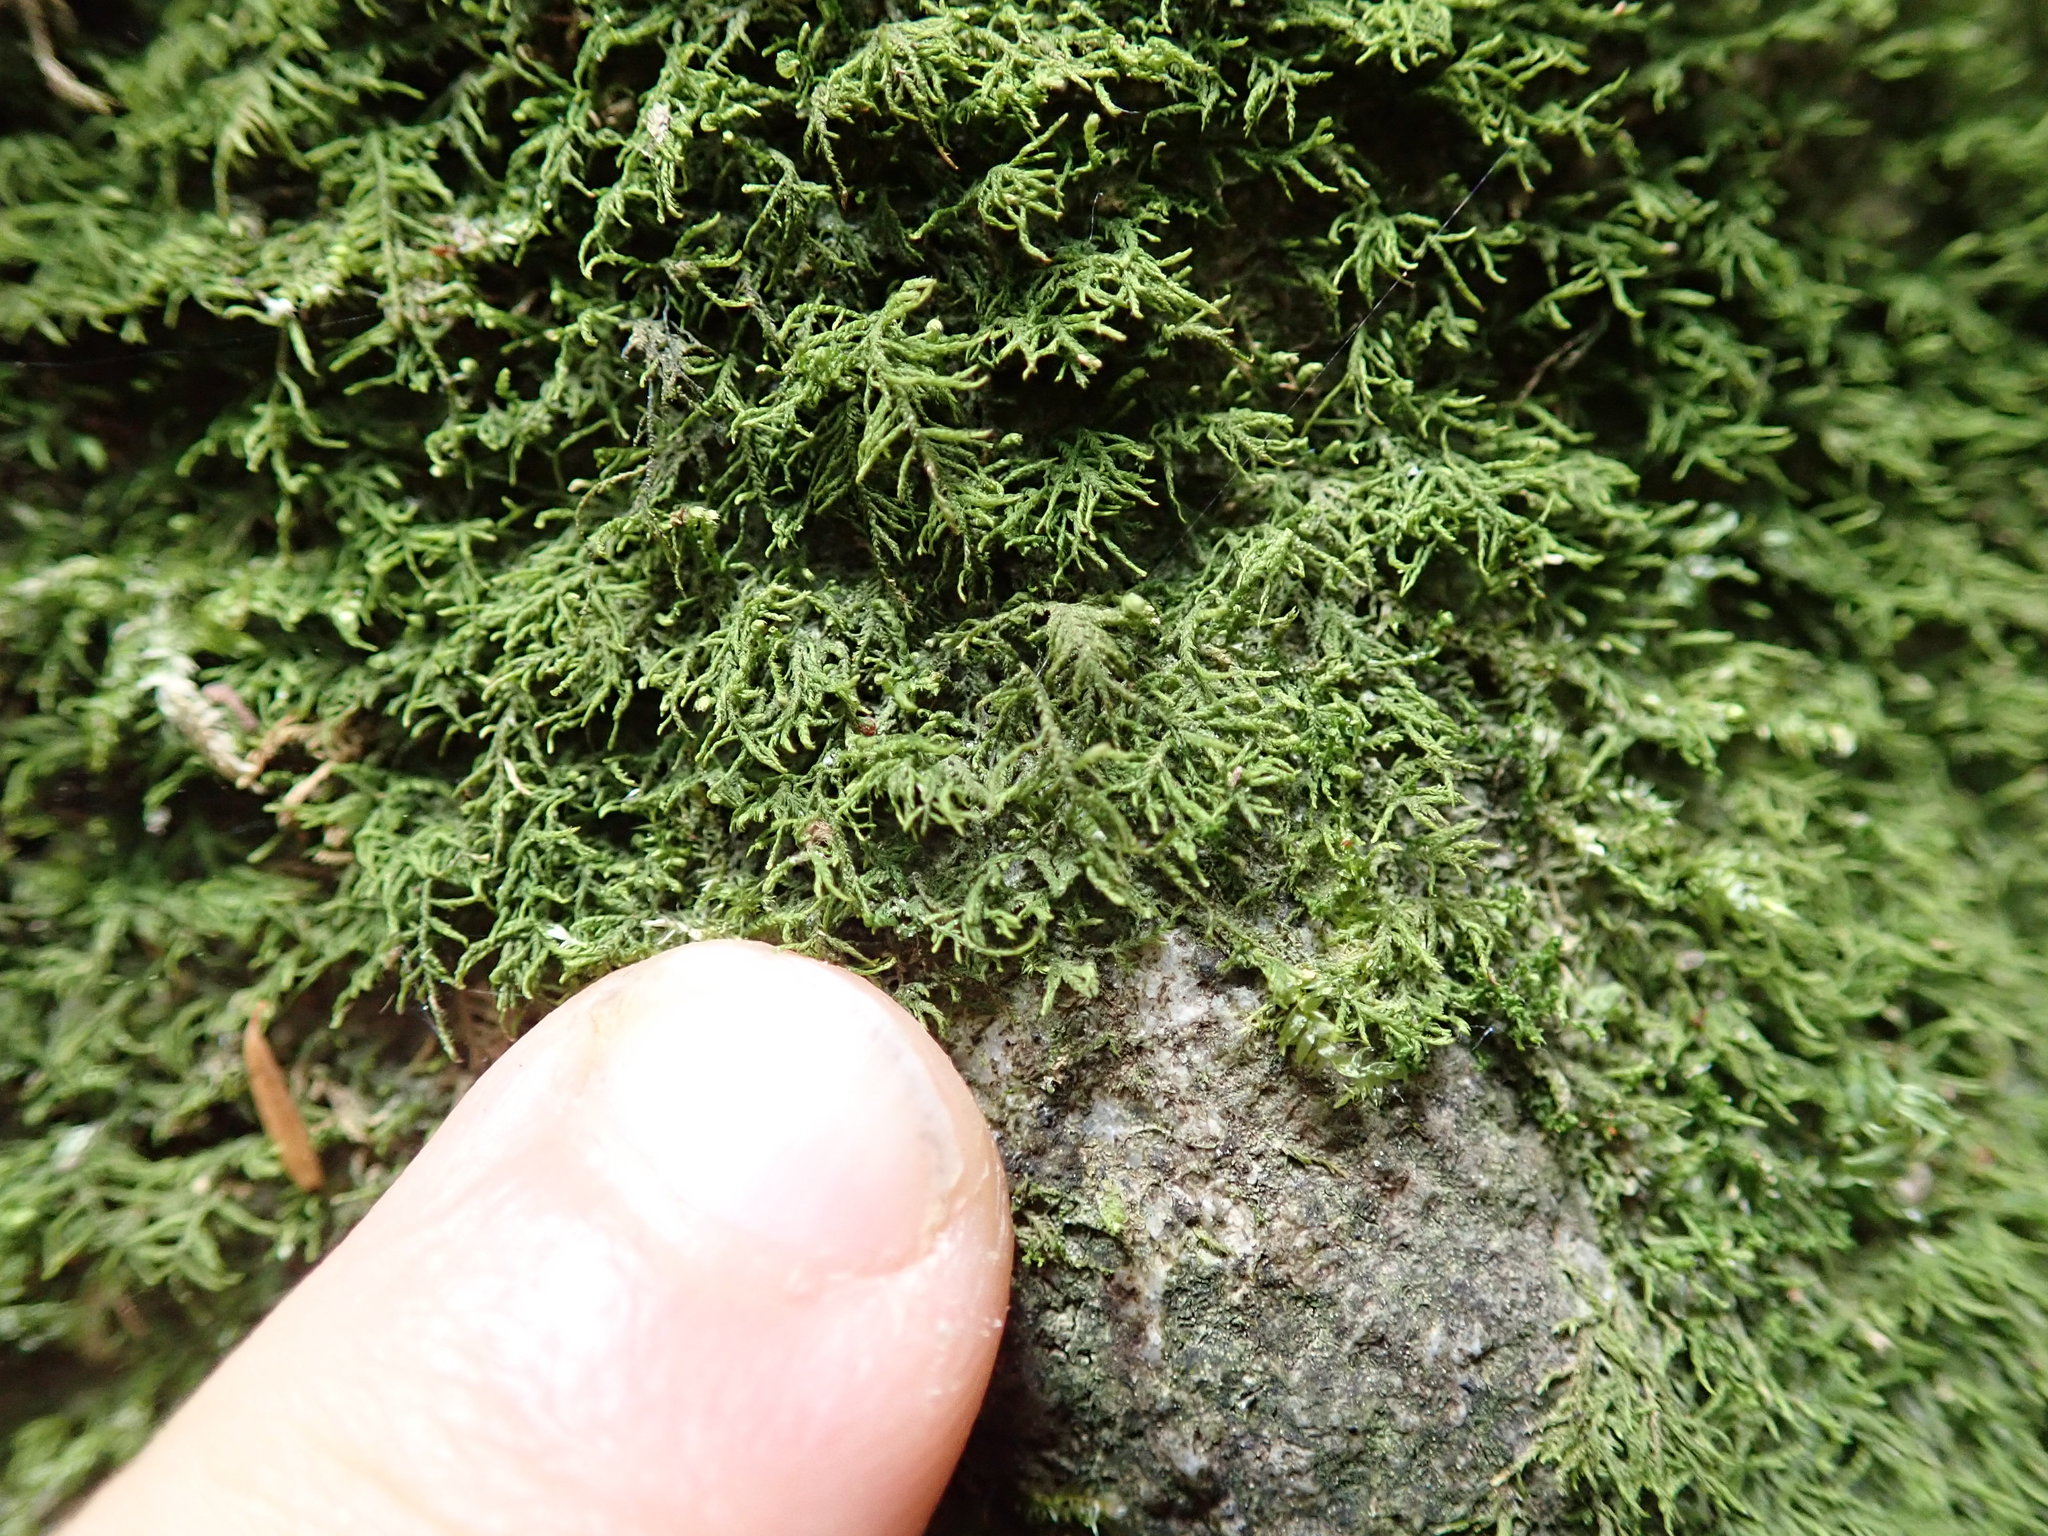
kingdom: Plantae
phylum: Bryophyta
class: Bryopsida
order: Hypnales
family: Lembophyllaceae
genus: Heterocladium
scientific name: Heterocladium macounii
